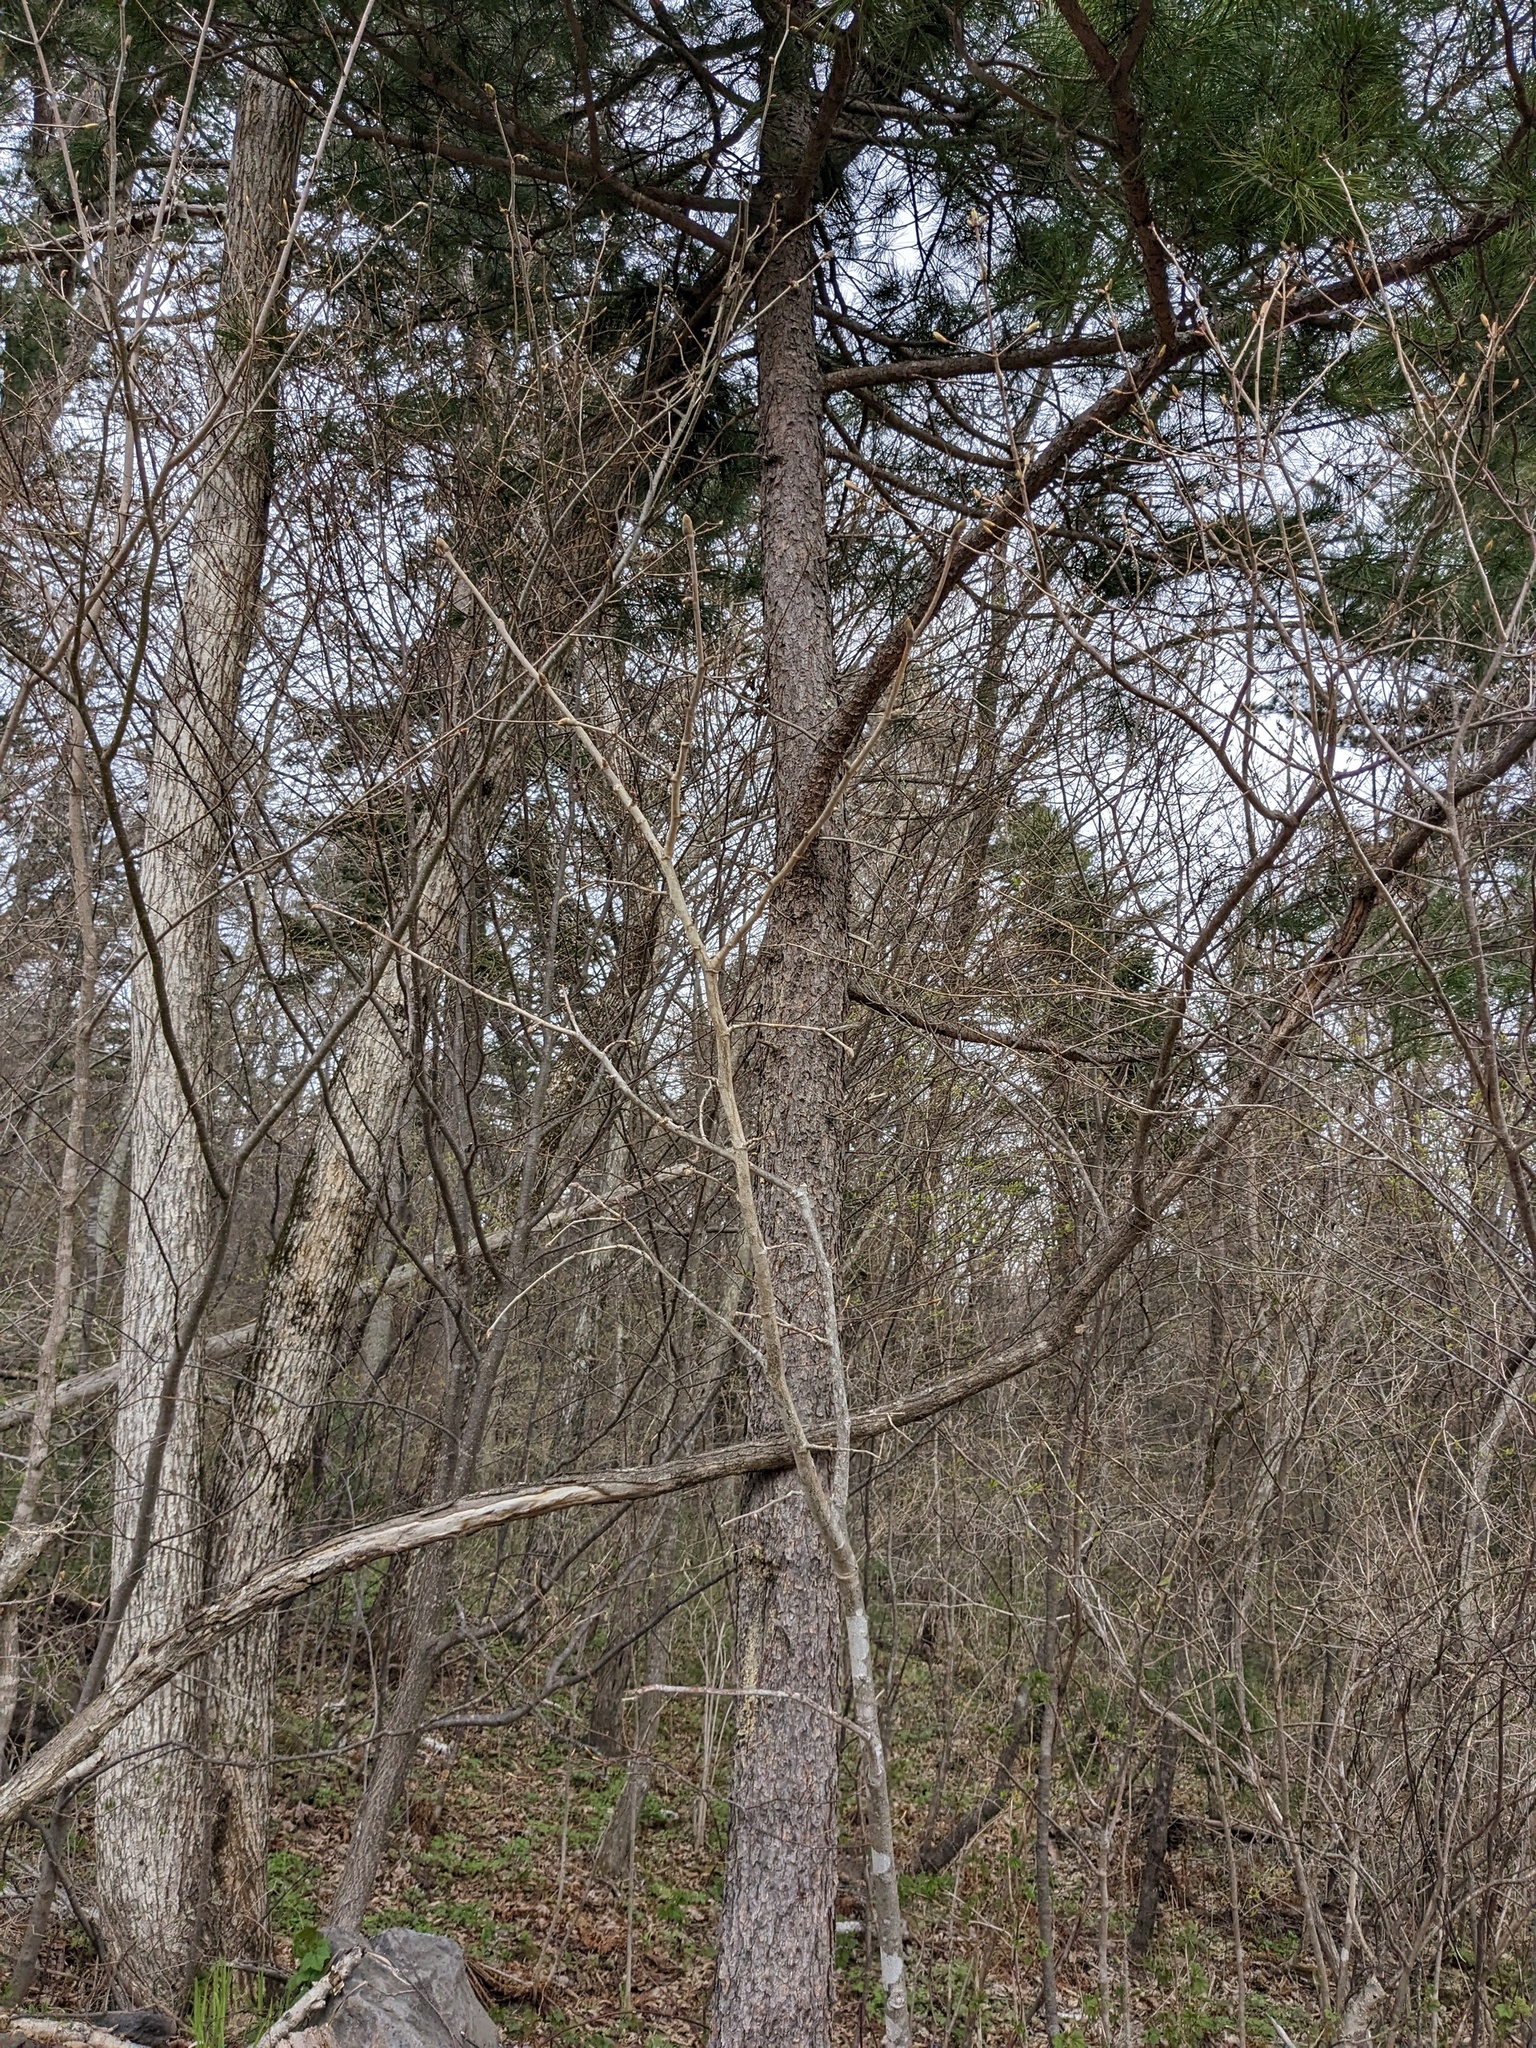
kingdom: Plantae
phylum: Tracheophyta
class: Pinopsida
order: Pinales
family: Pinaceae
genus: Pinus
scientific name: Pinus koraiensis
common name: Korean pine
